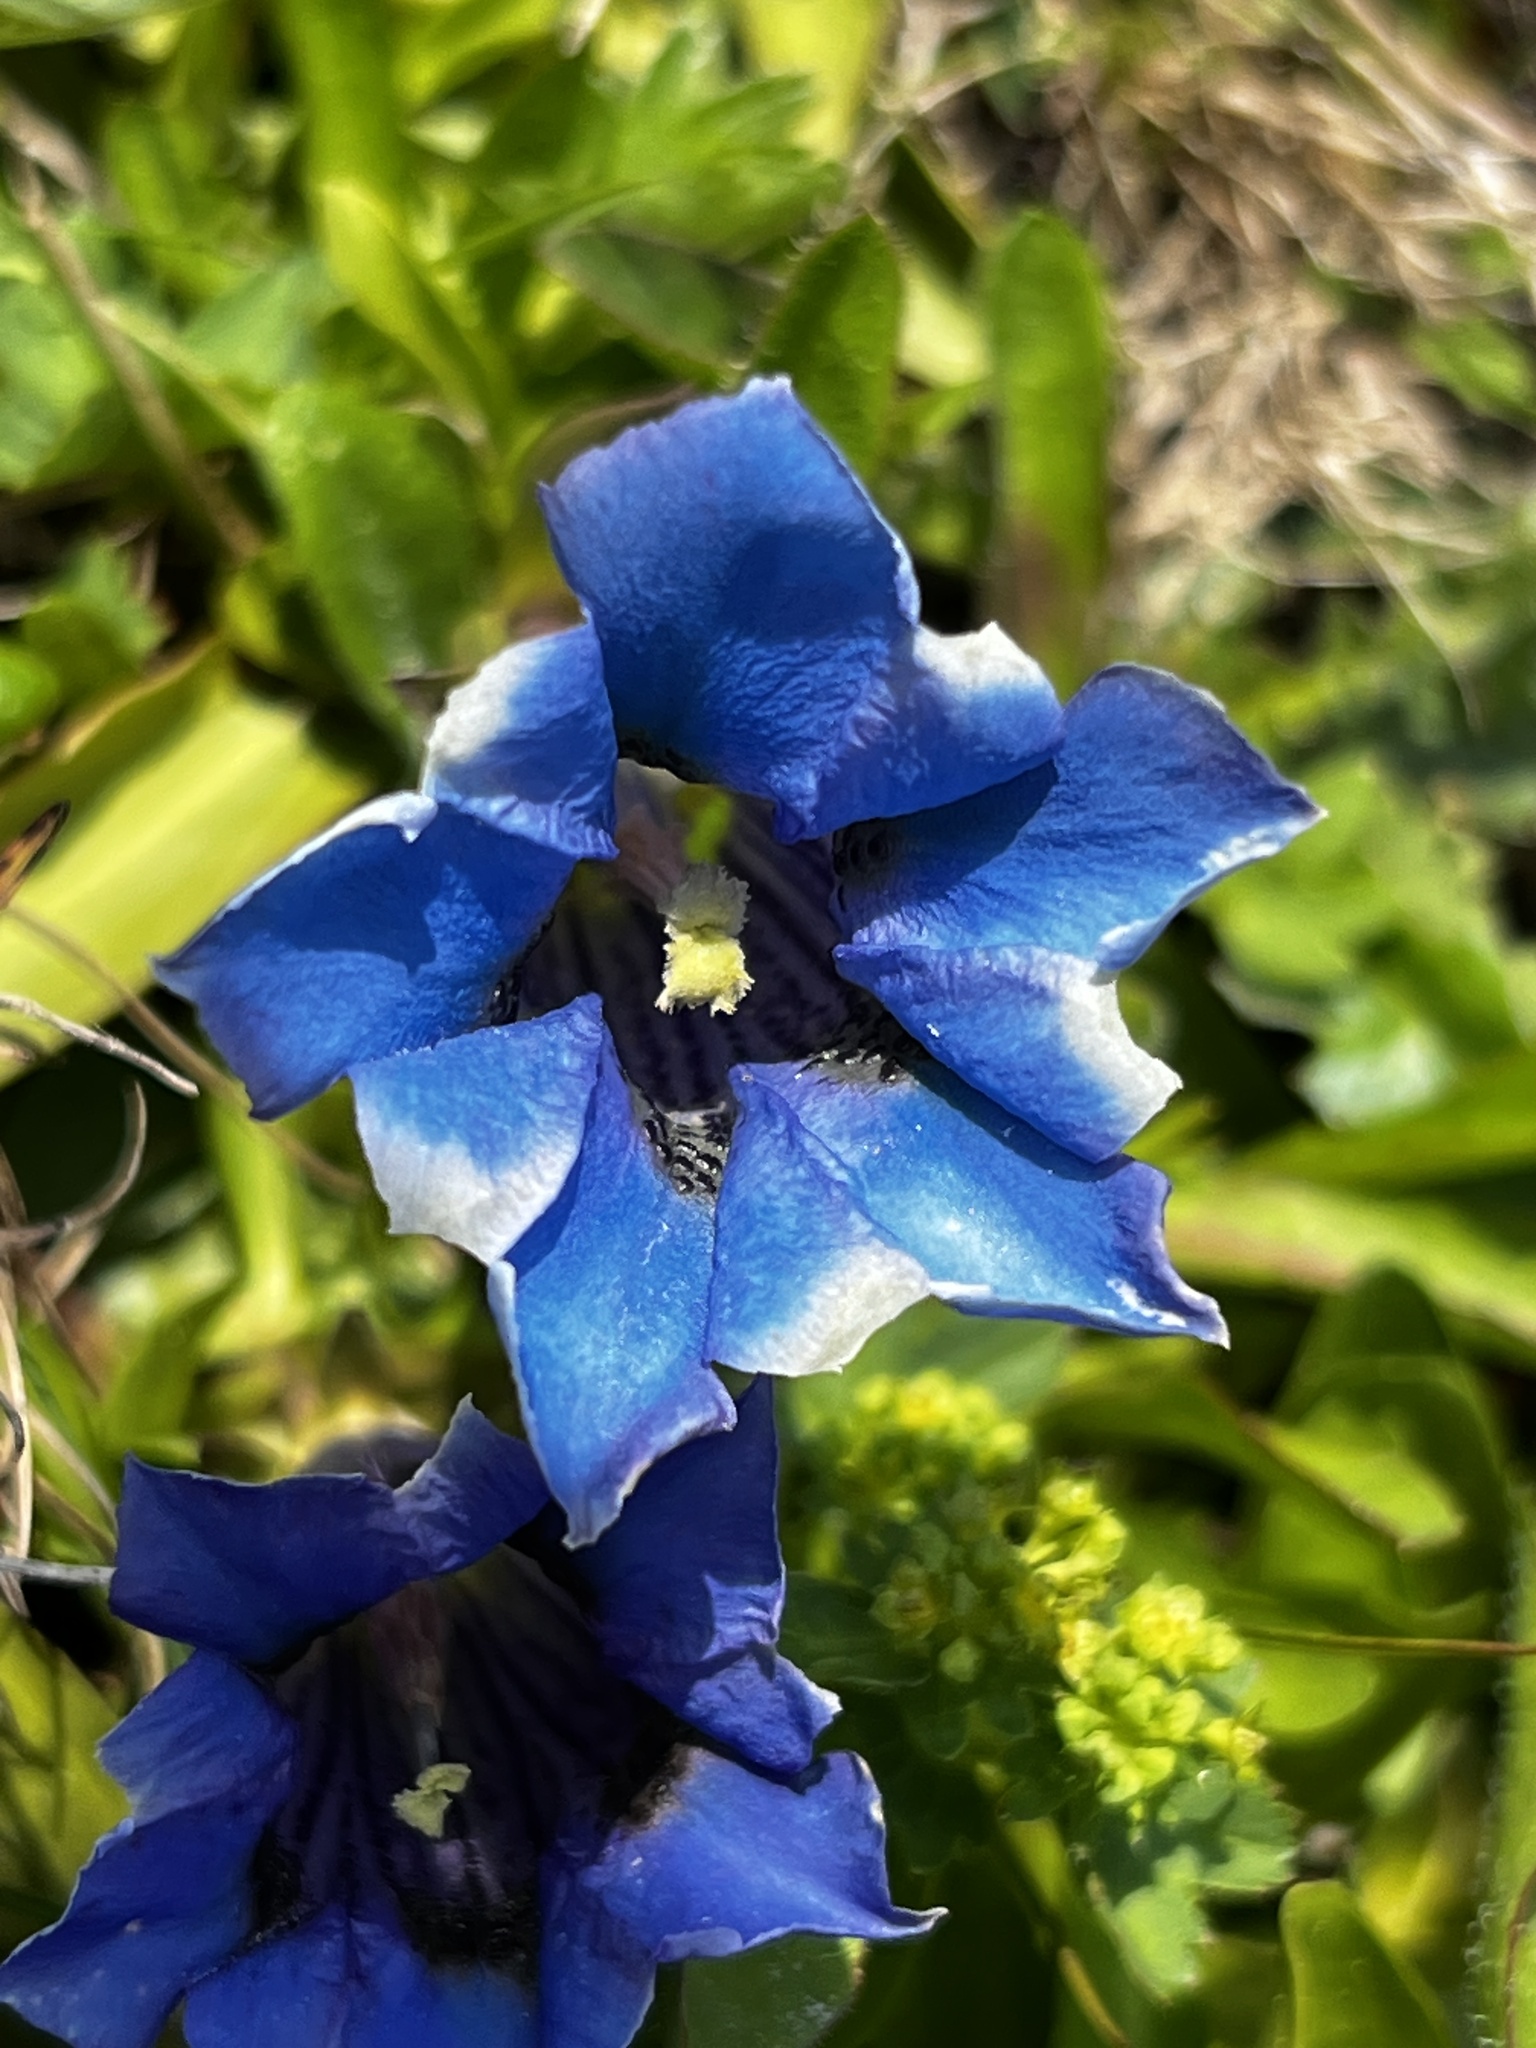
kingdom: Plantae
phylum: Tracheophyta
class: Magnoliopsida
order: Gentianales
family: Gentianaceae
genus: Gentiana
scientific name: Gentiana acaulis
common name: Trumpet gentian
